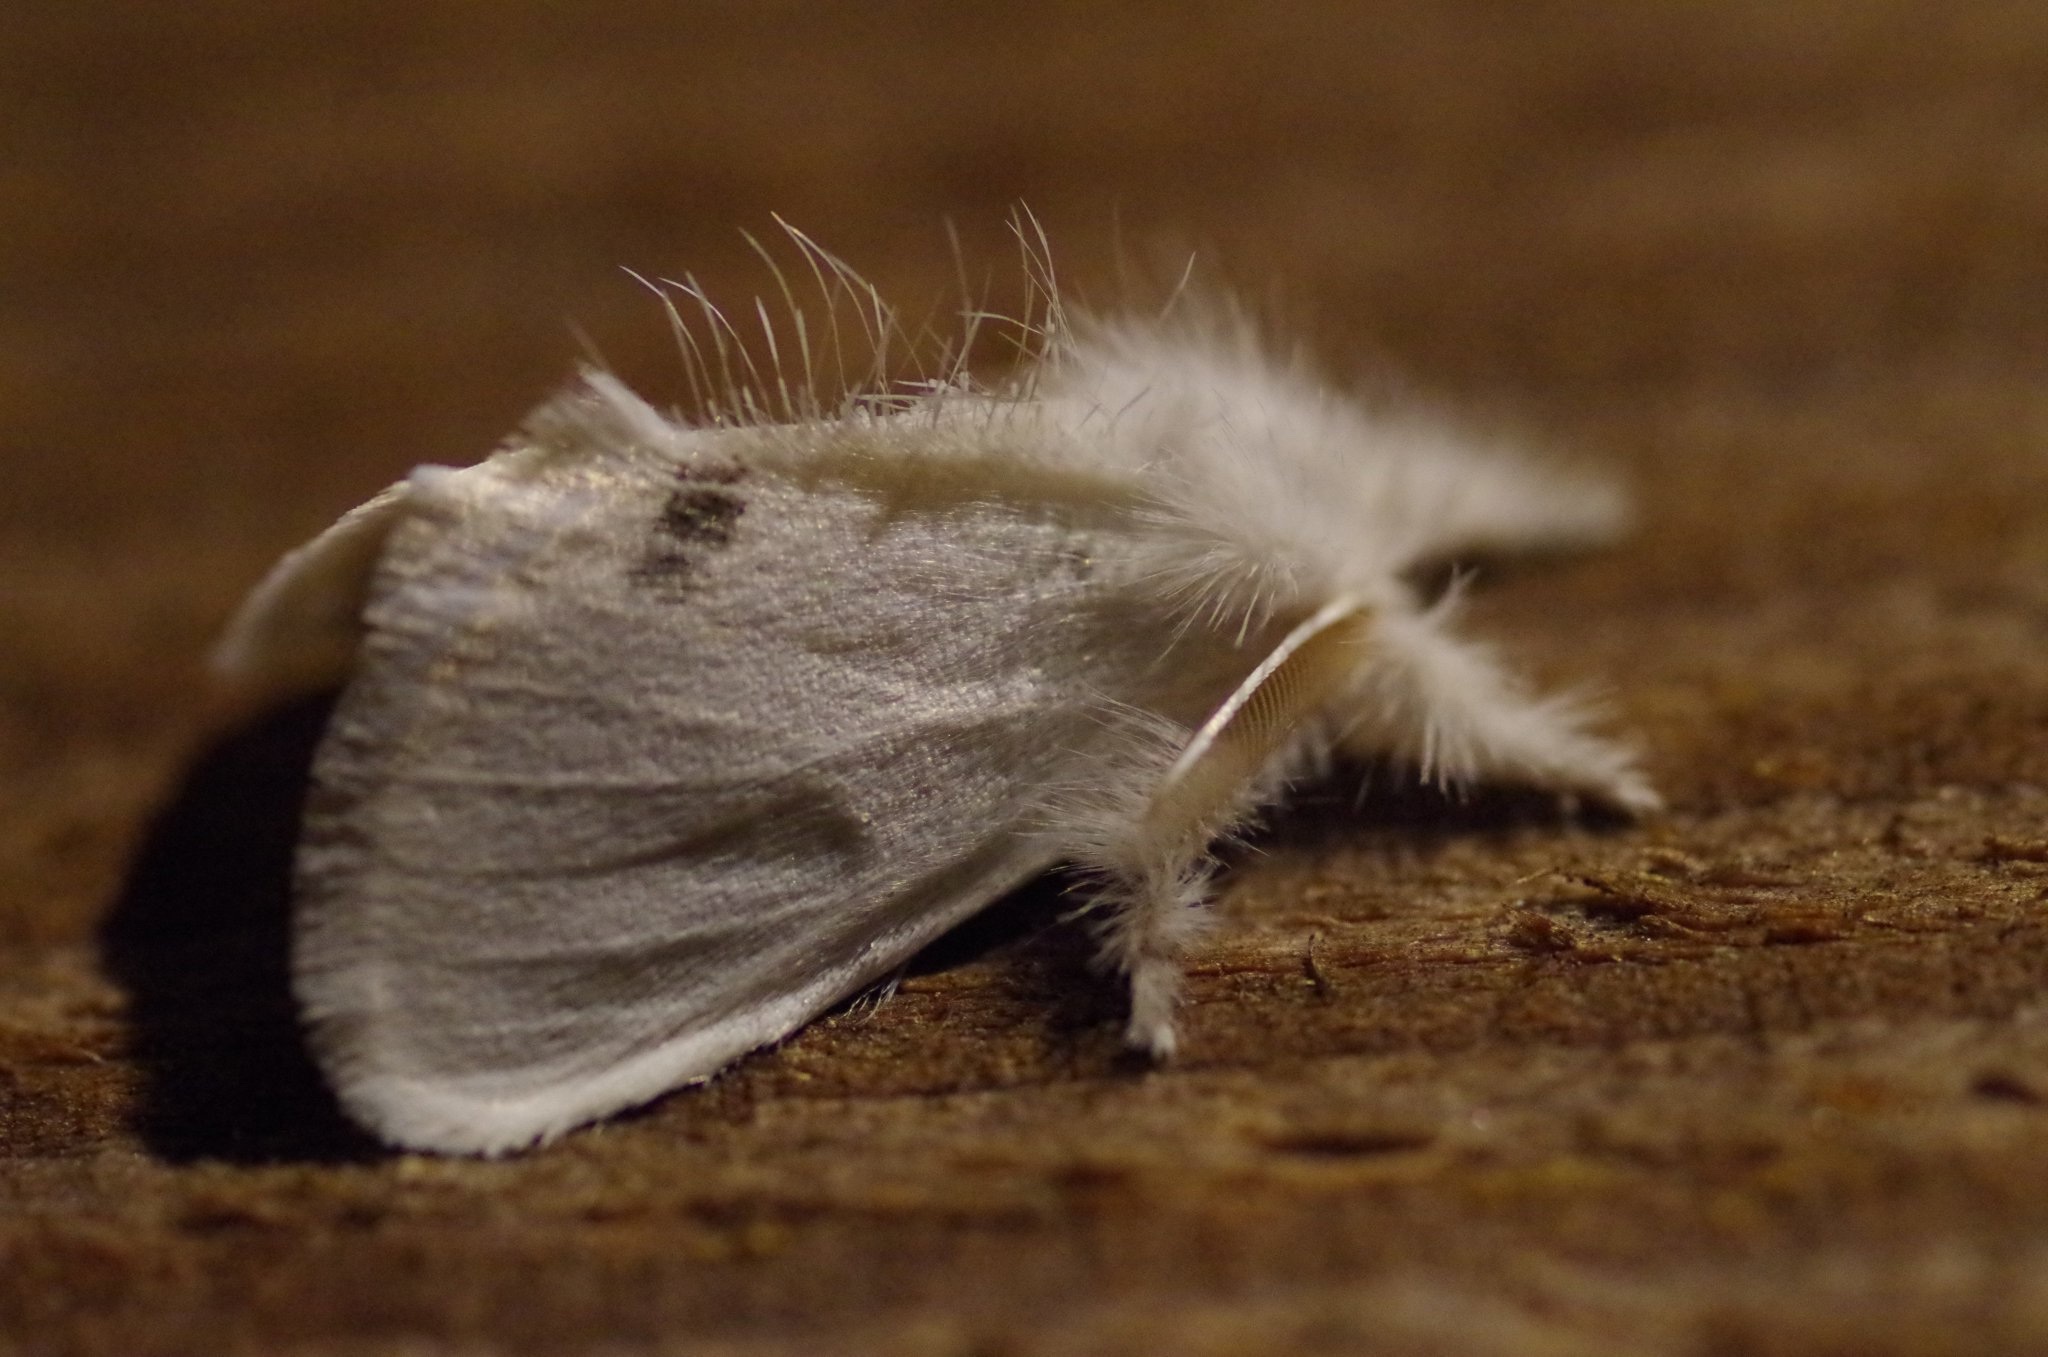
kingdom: Animalia
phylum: Arthropoda
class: Insecta
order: Lepidoptera
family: Erebidae
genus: Sphrageidus
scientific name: Sphrageidus similis
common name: Yellow-tail
